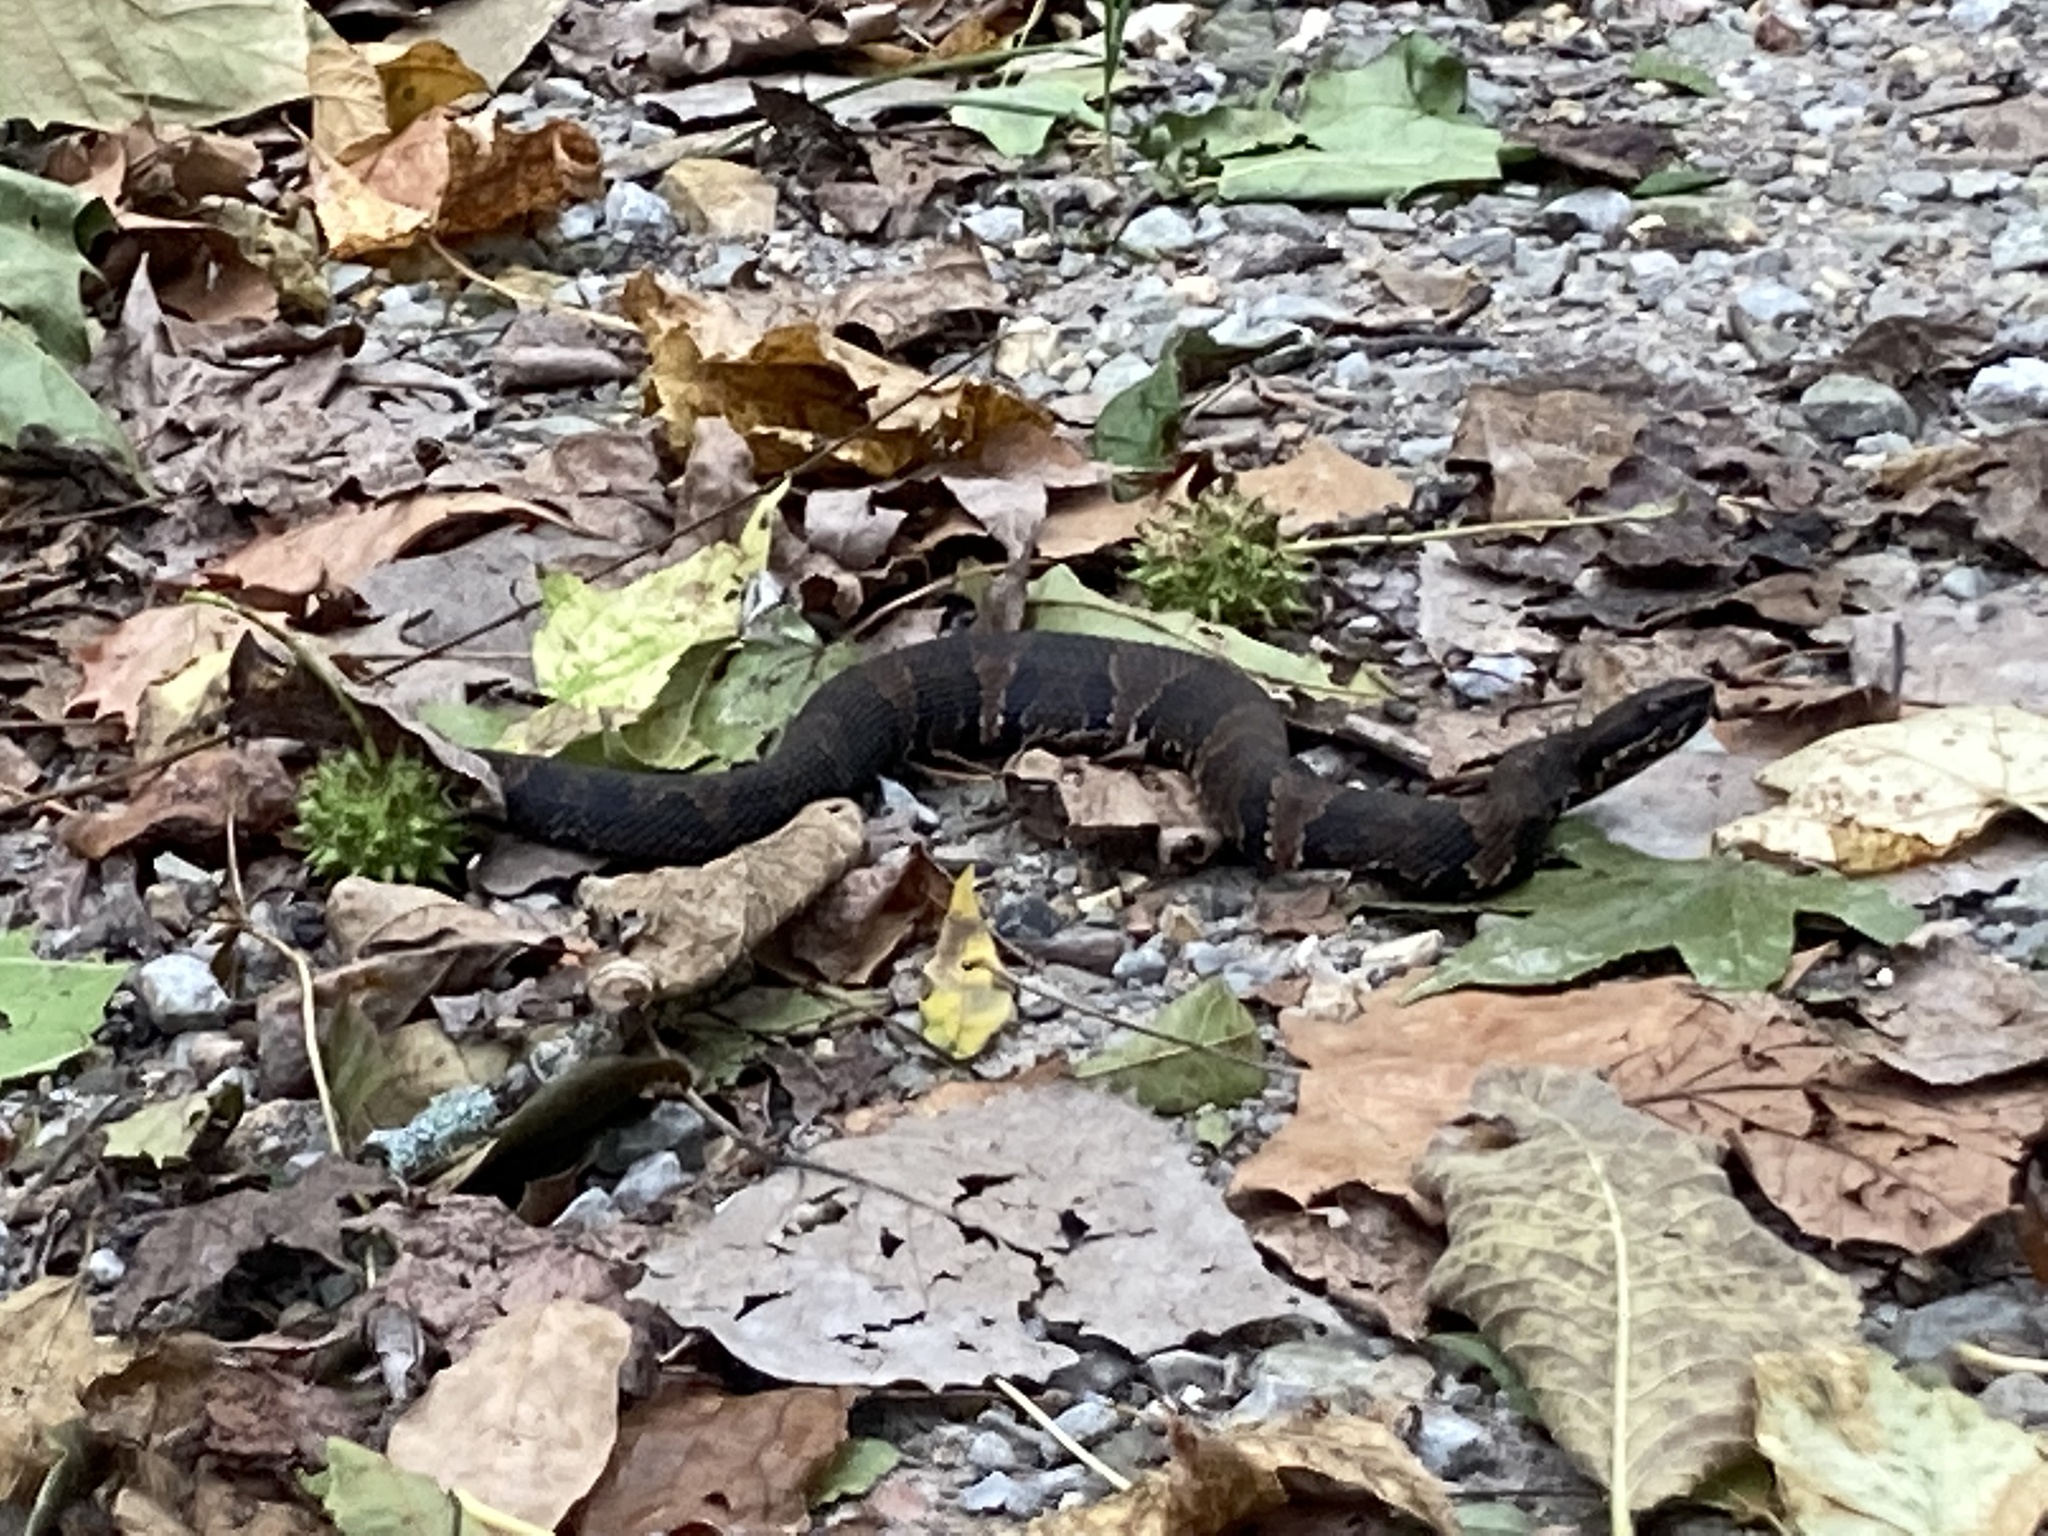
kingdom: Animalia
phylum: Chordata
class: Squamata
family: Viperidae
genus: Agkistrodon
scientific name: Agkistrodon piscivorus
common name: Cottonmouth
